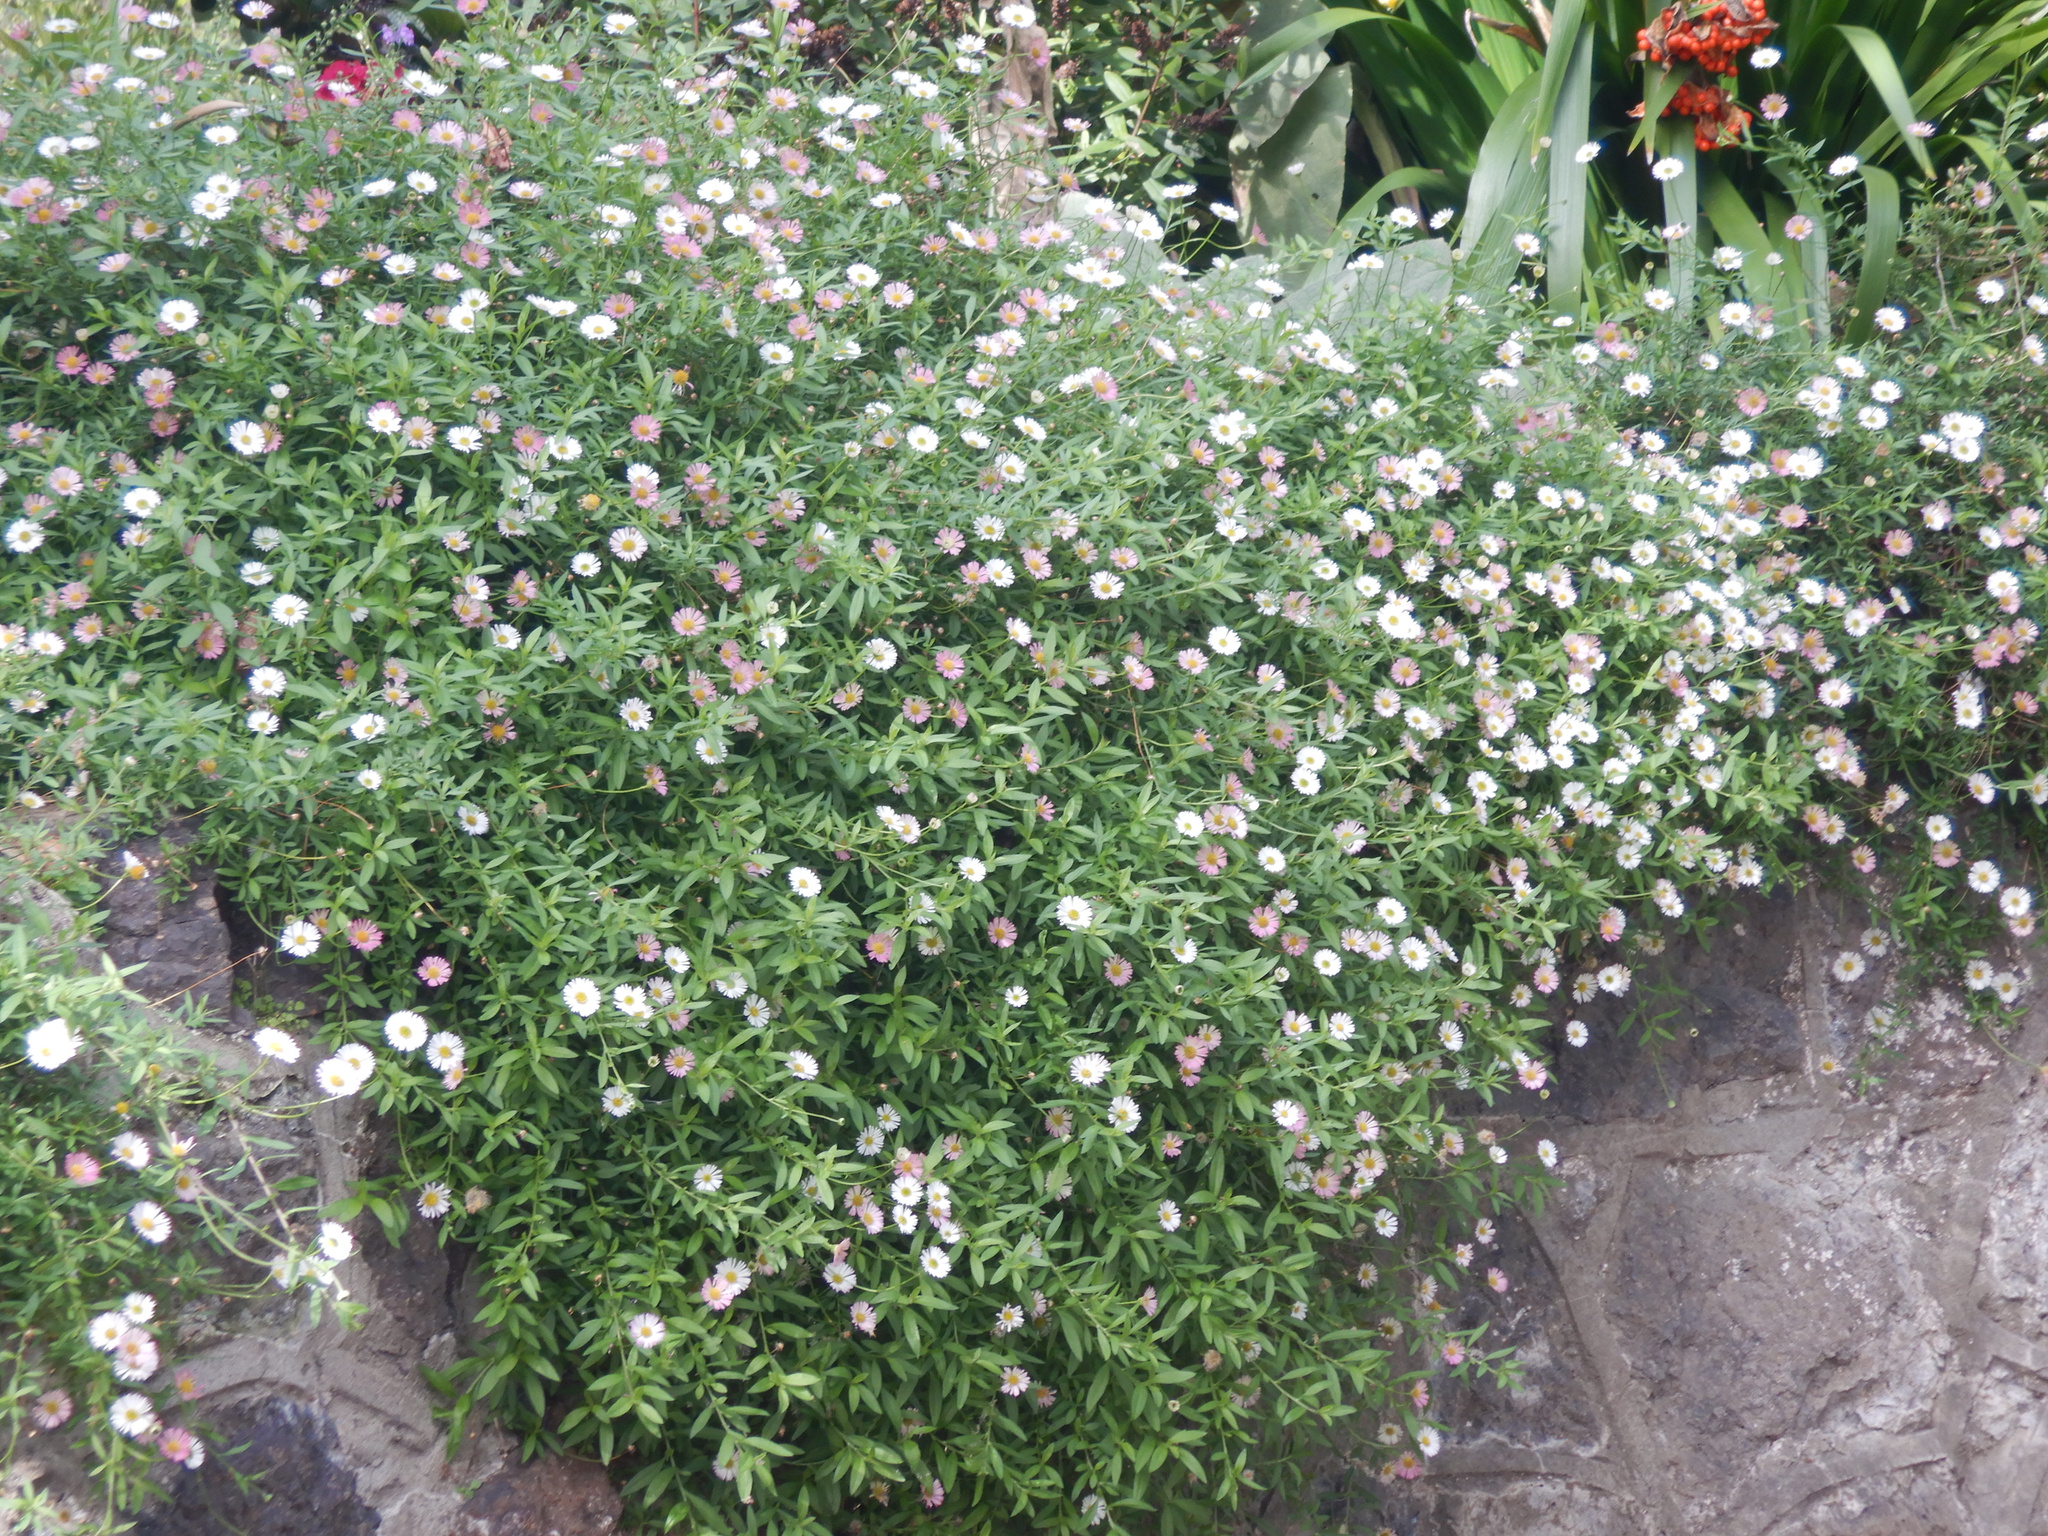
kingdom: Plantae
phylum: Tracheophyta
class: Magnoliopsida
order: Asterales
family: Asteraceae
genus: Erigeron
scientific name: Erigeron karvinskianus
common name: Mexican fleabane
